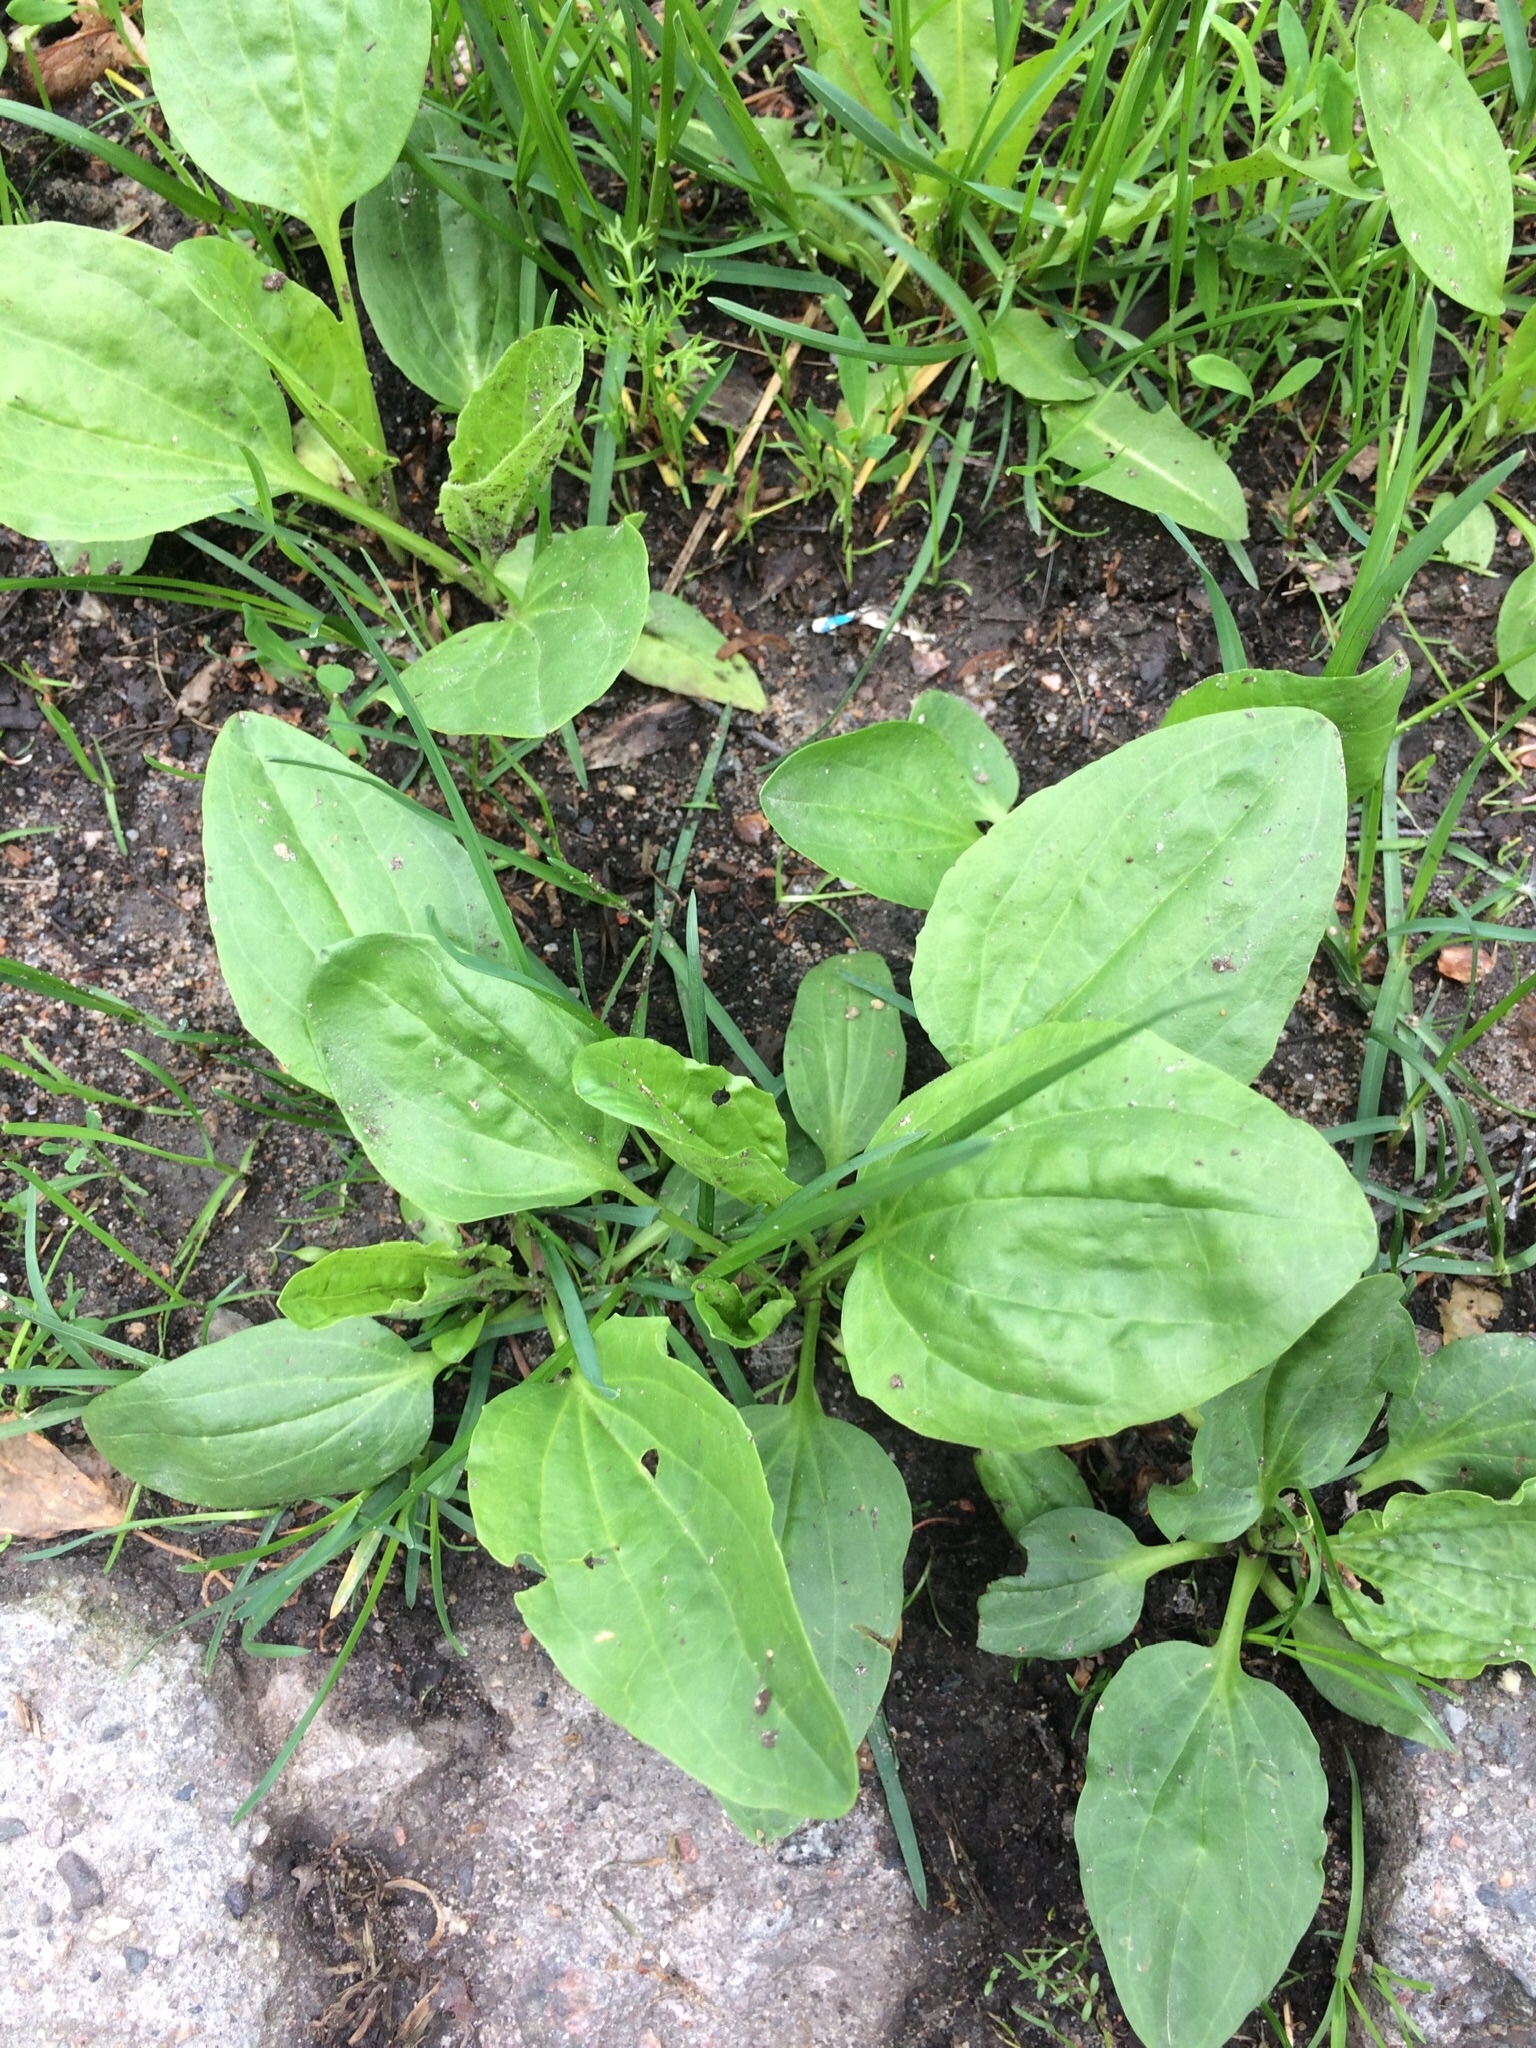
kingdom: Plantae
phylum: Tracheophyta
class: Magnoliopsida
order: Lamiales
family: Plantaginaceae
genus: Plantago
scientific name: Plantago major
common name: Common plantain
